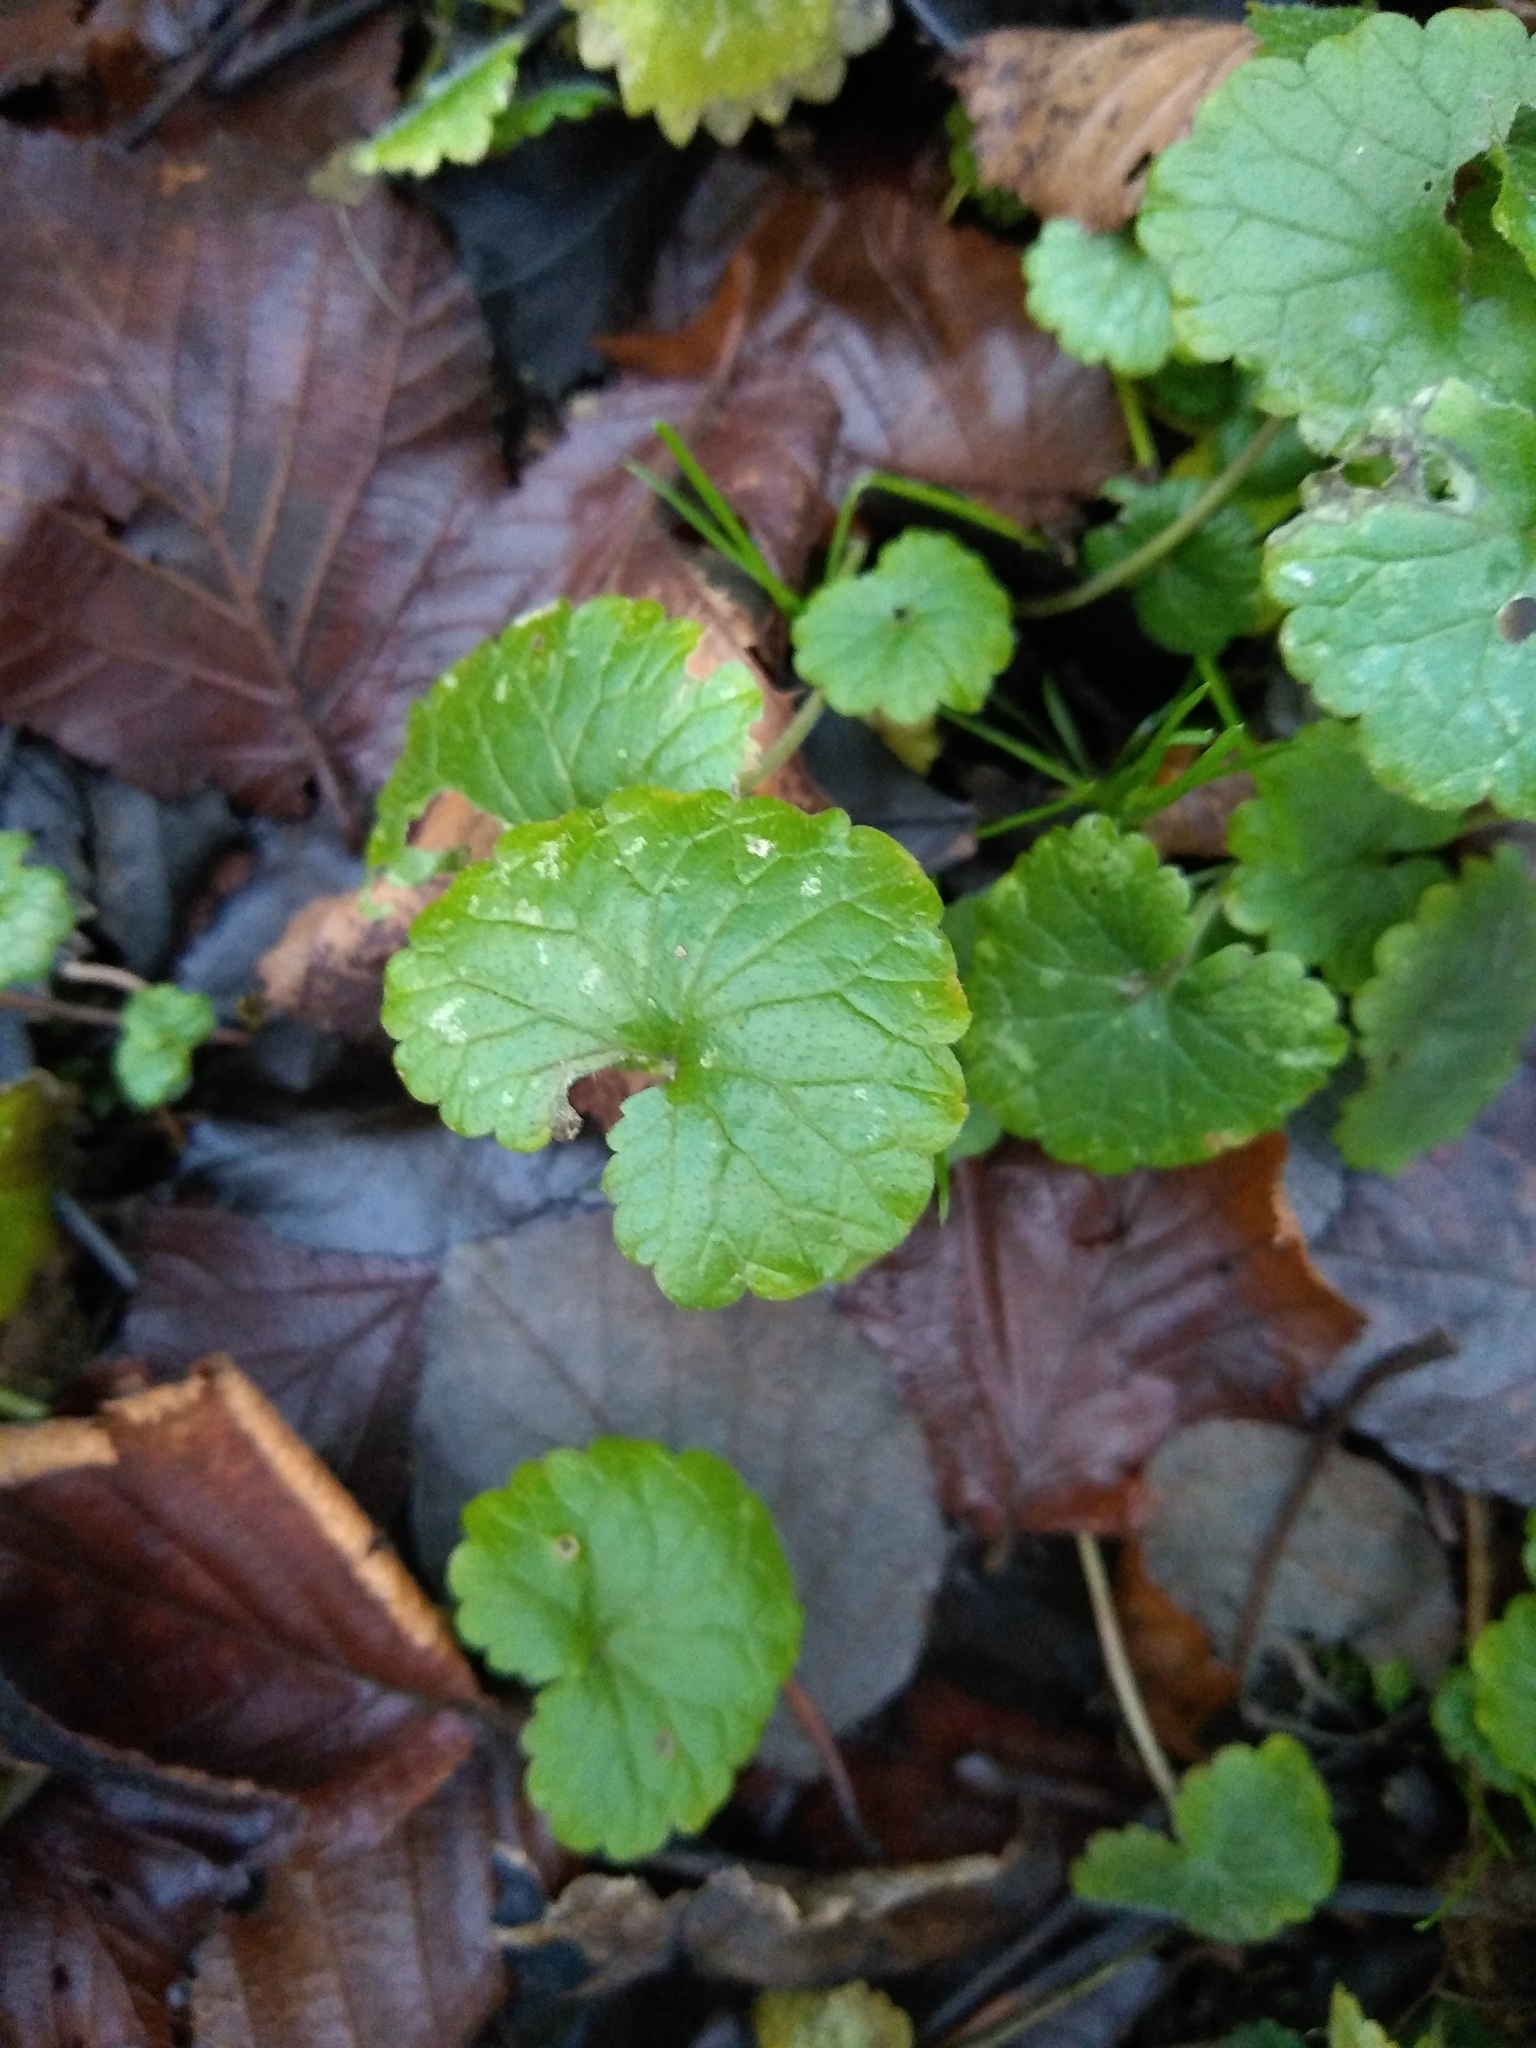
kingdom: Plantae
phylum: Tracheophyta
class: Magnoliopsida
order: Lamiales
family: Lamiaceae
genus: Glechoma
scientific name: Glechoma hederacea
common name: Ground ivy
